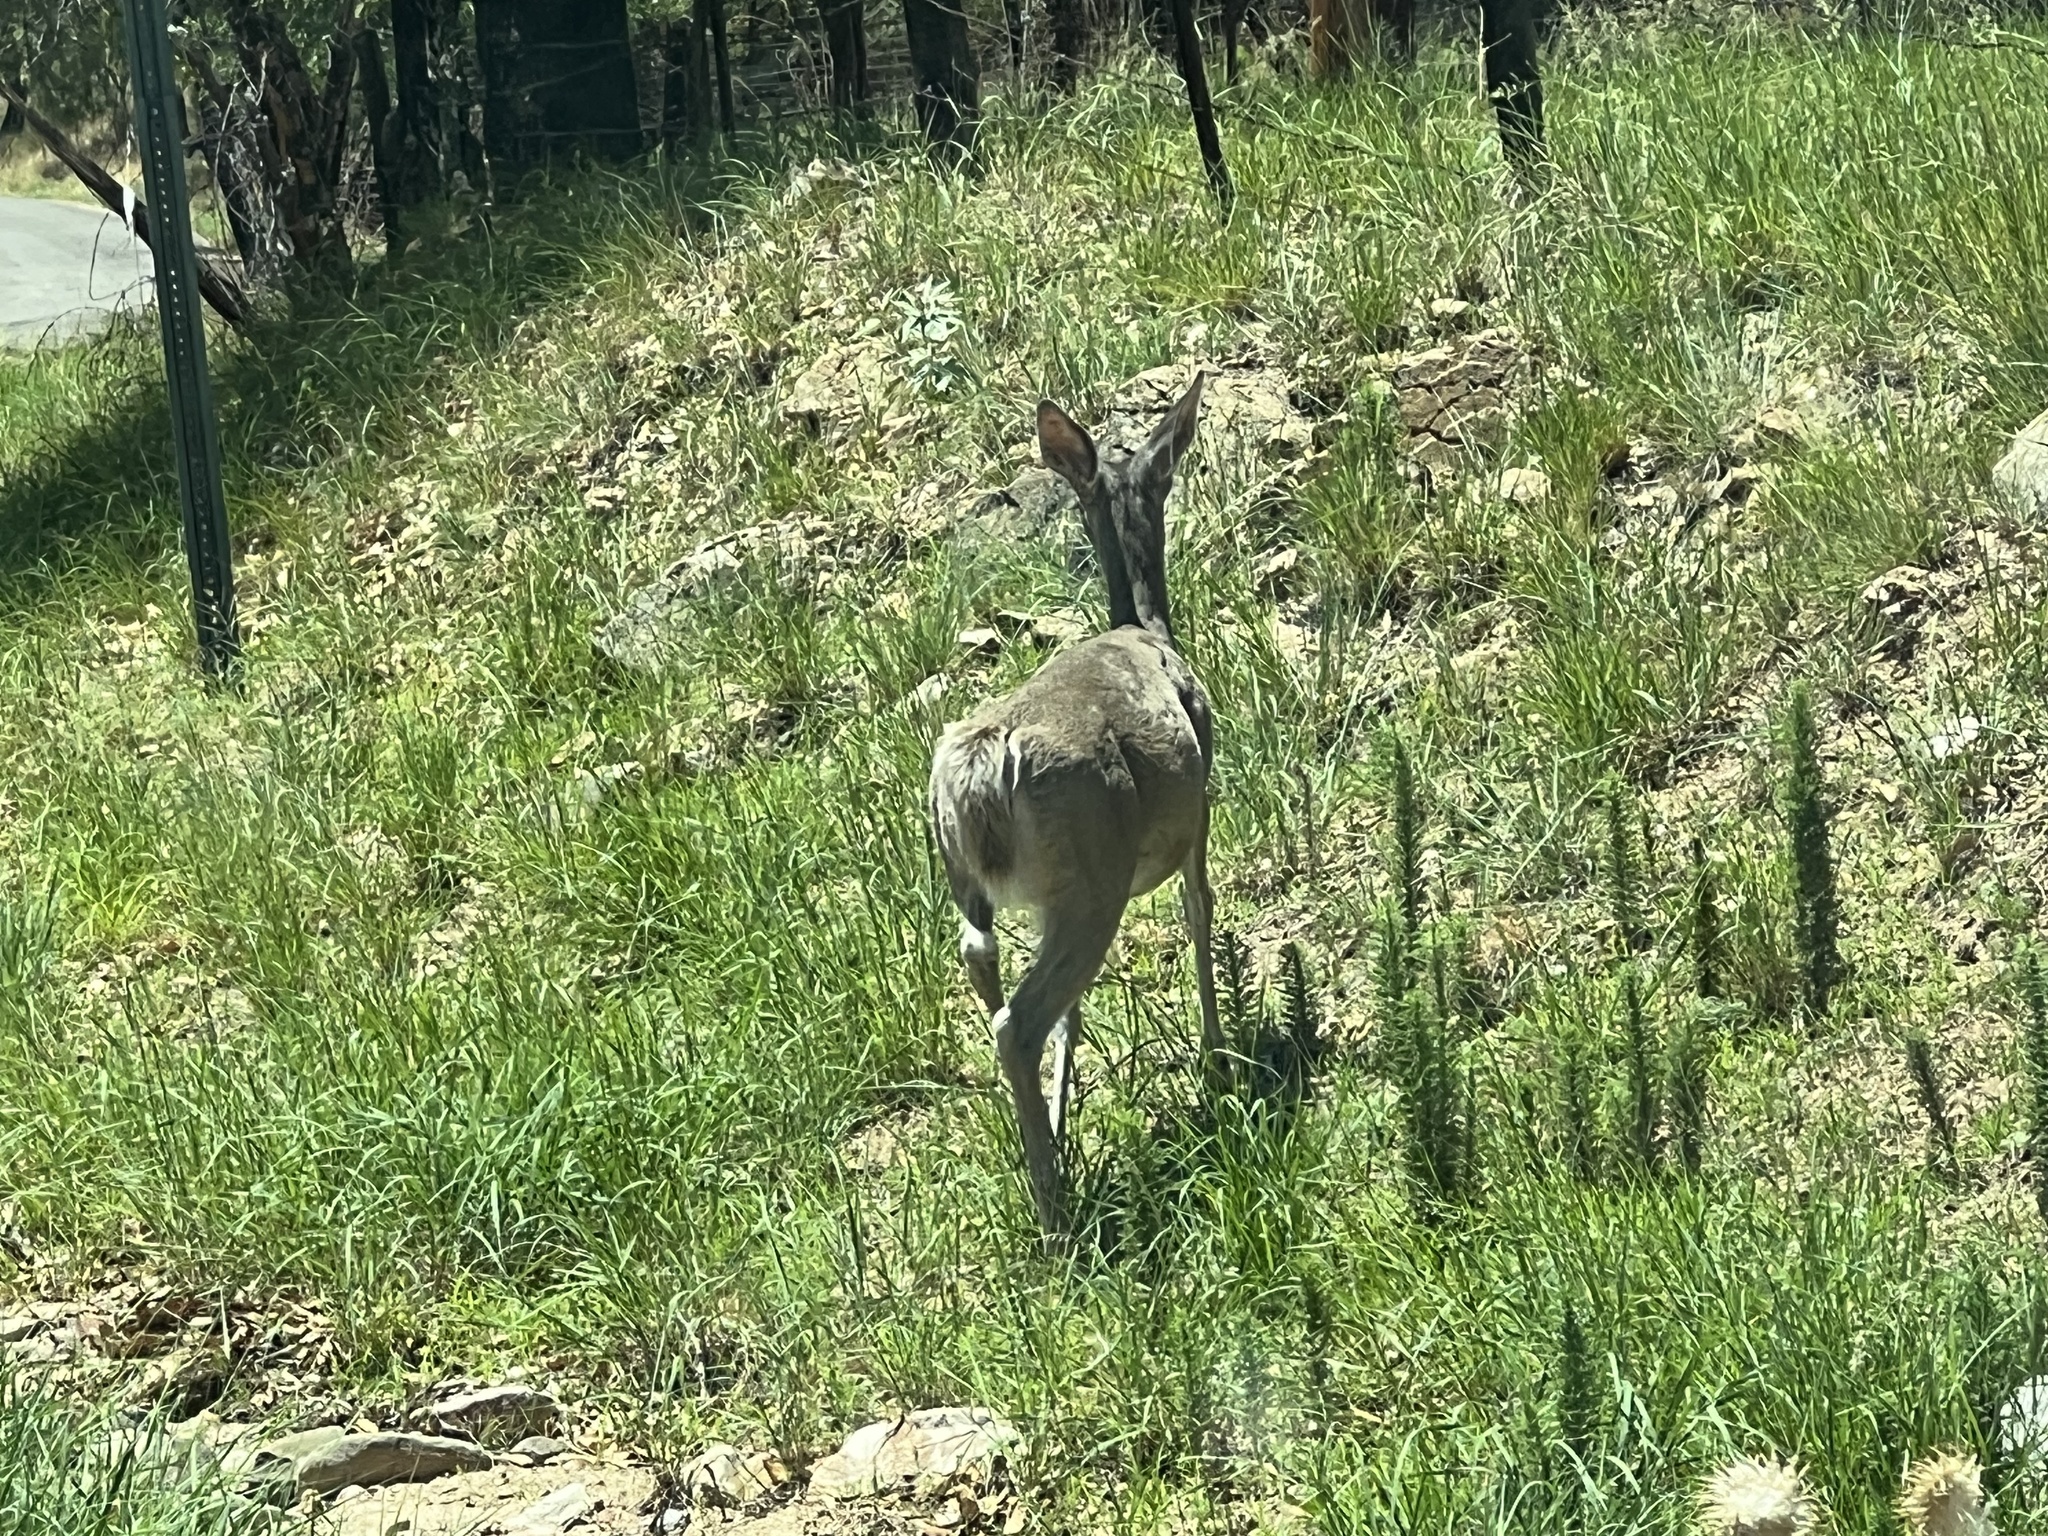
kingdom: Animalia
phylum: Chordata
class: Mammalia
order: Artiodactyla
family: Cervidae
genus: Odocoileus
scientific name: Odocoileus virginianus
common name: White-tailed deer
